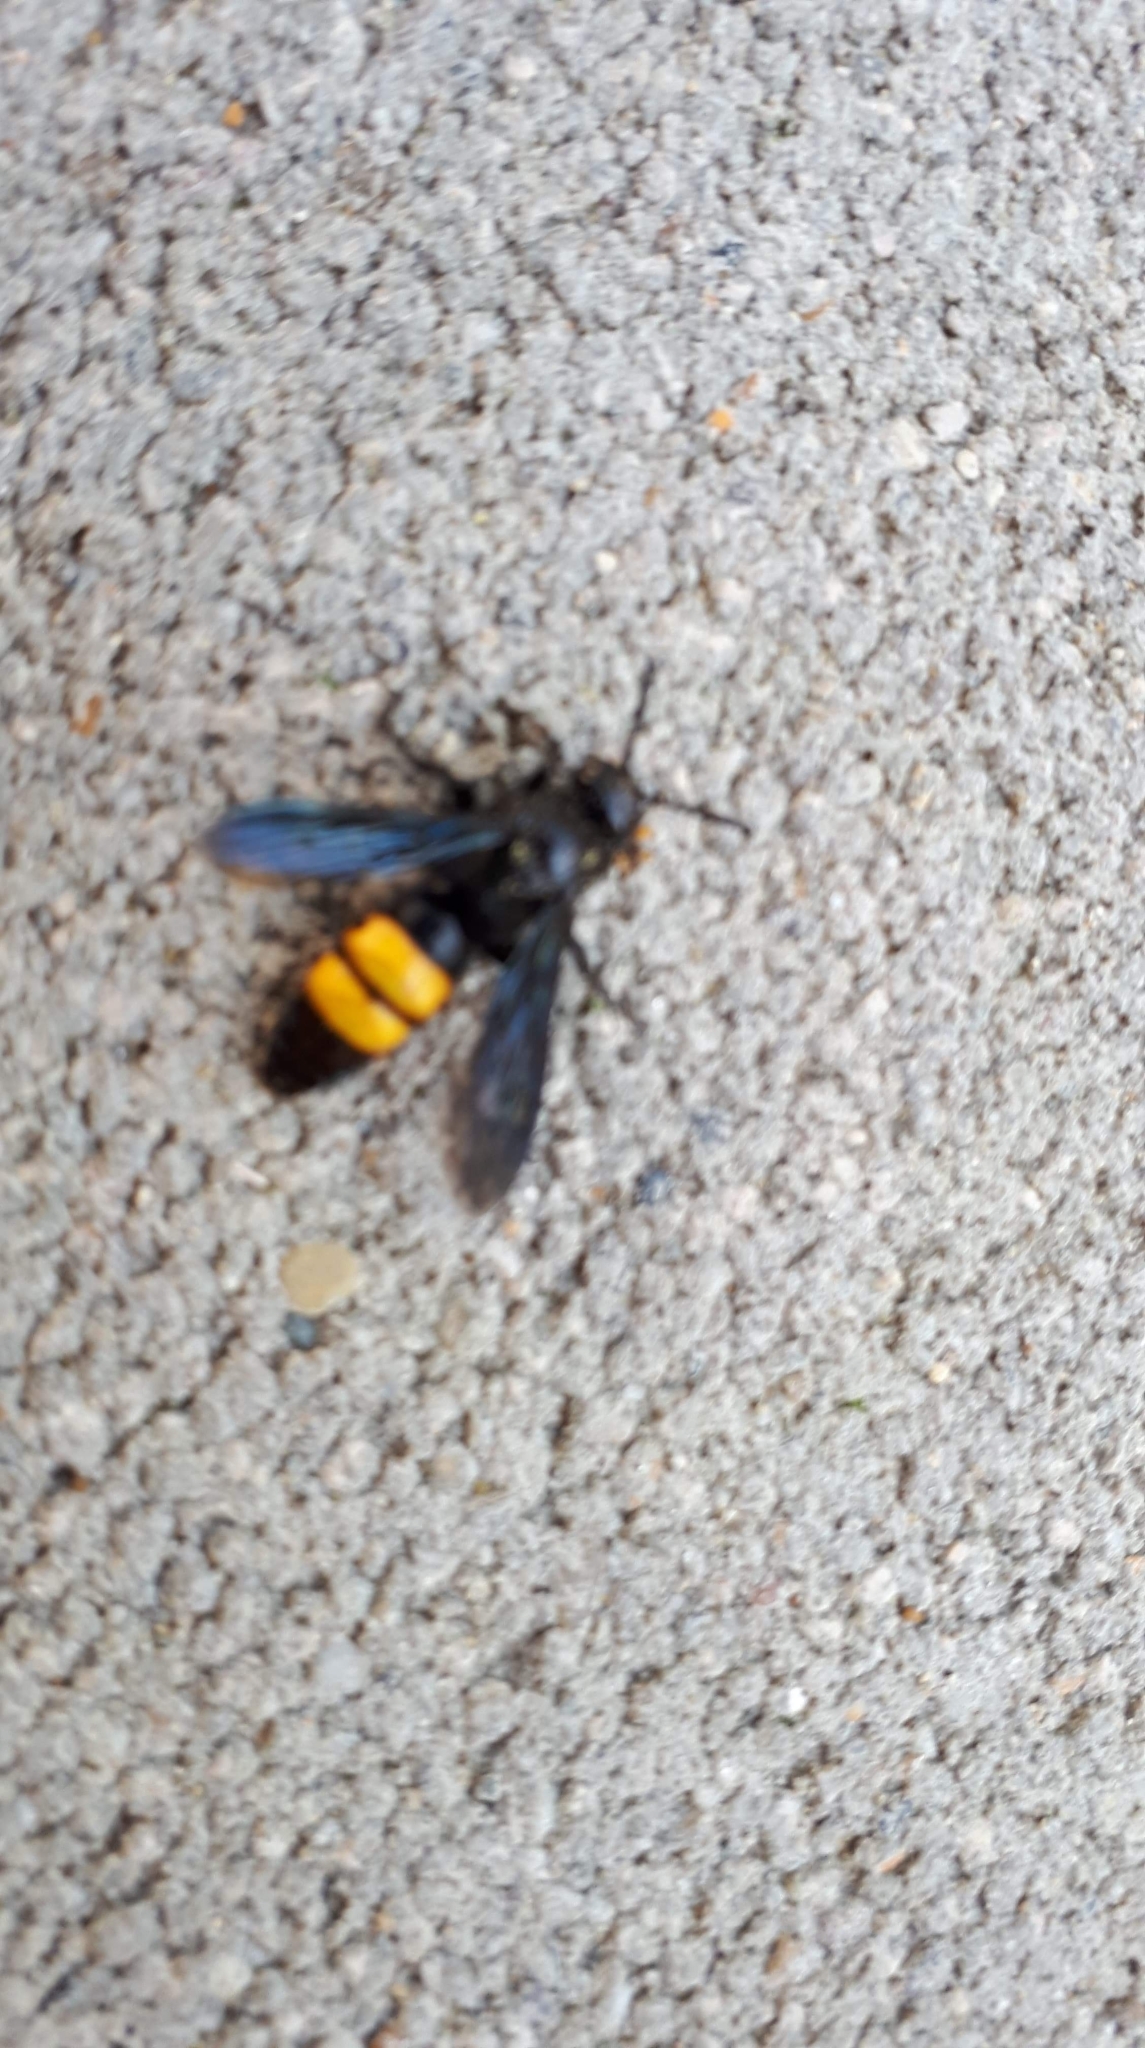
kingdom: Animalia
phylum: Arthropoda
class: Insecta
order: Hymenoptera
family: Scoliidae
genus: Scolia
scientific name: Scolia hirta
